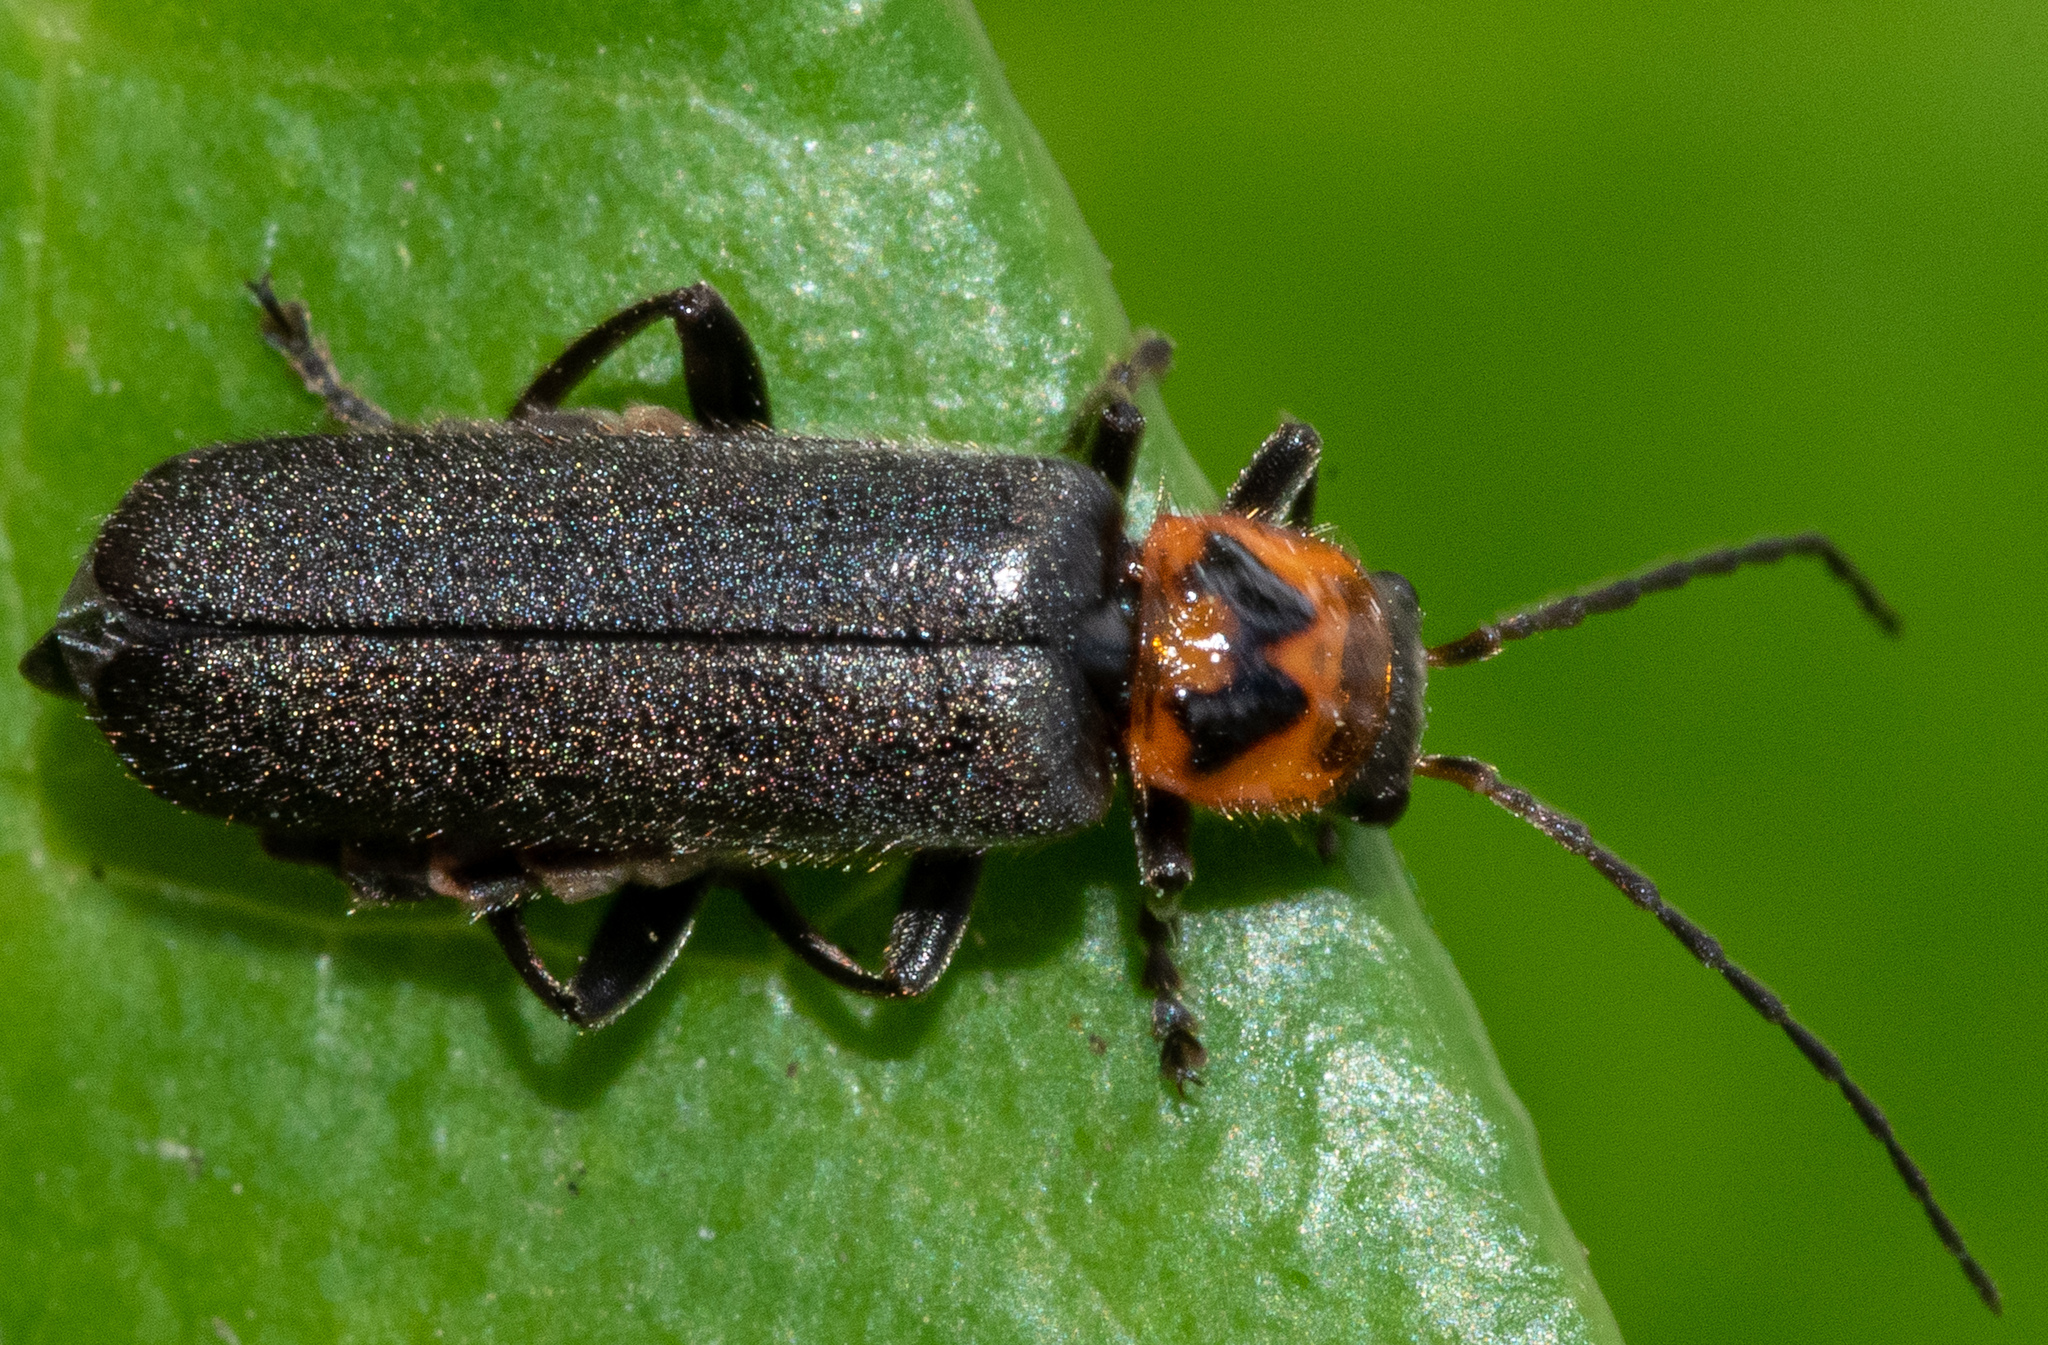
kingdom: Animalia
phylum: Arthropoda
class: Insecta
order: Coleoptera
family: Cantharidae
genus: Cyrtomoptera
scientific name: Cyrtomoptera divisa
